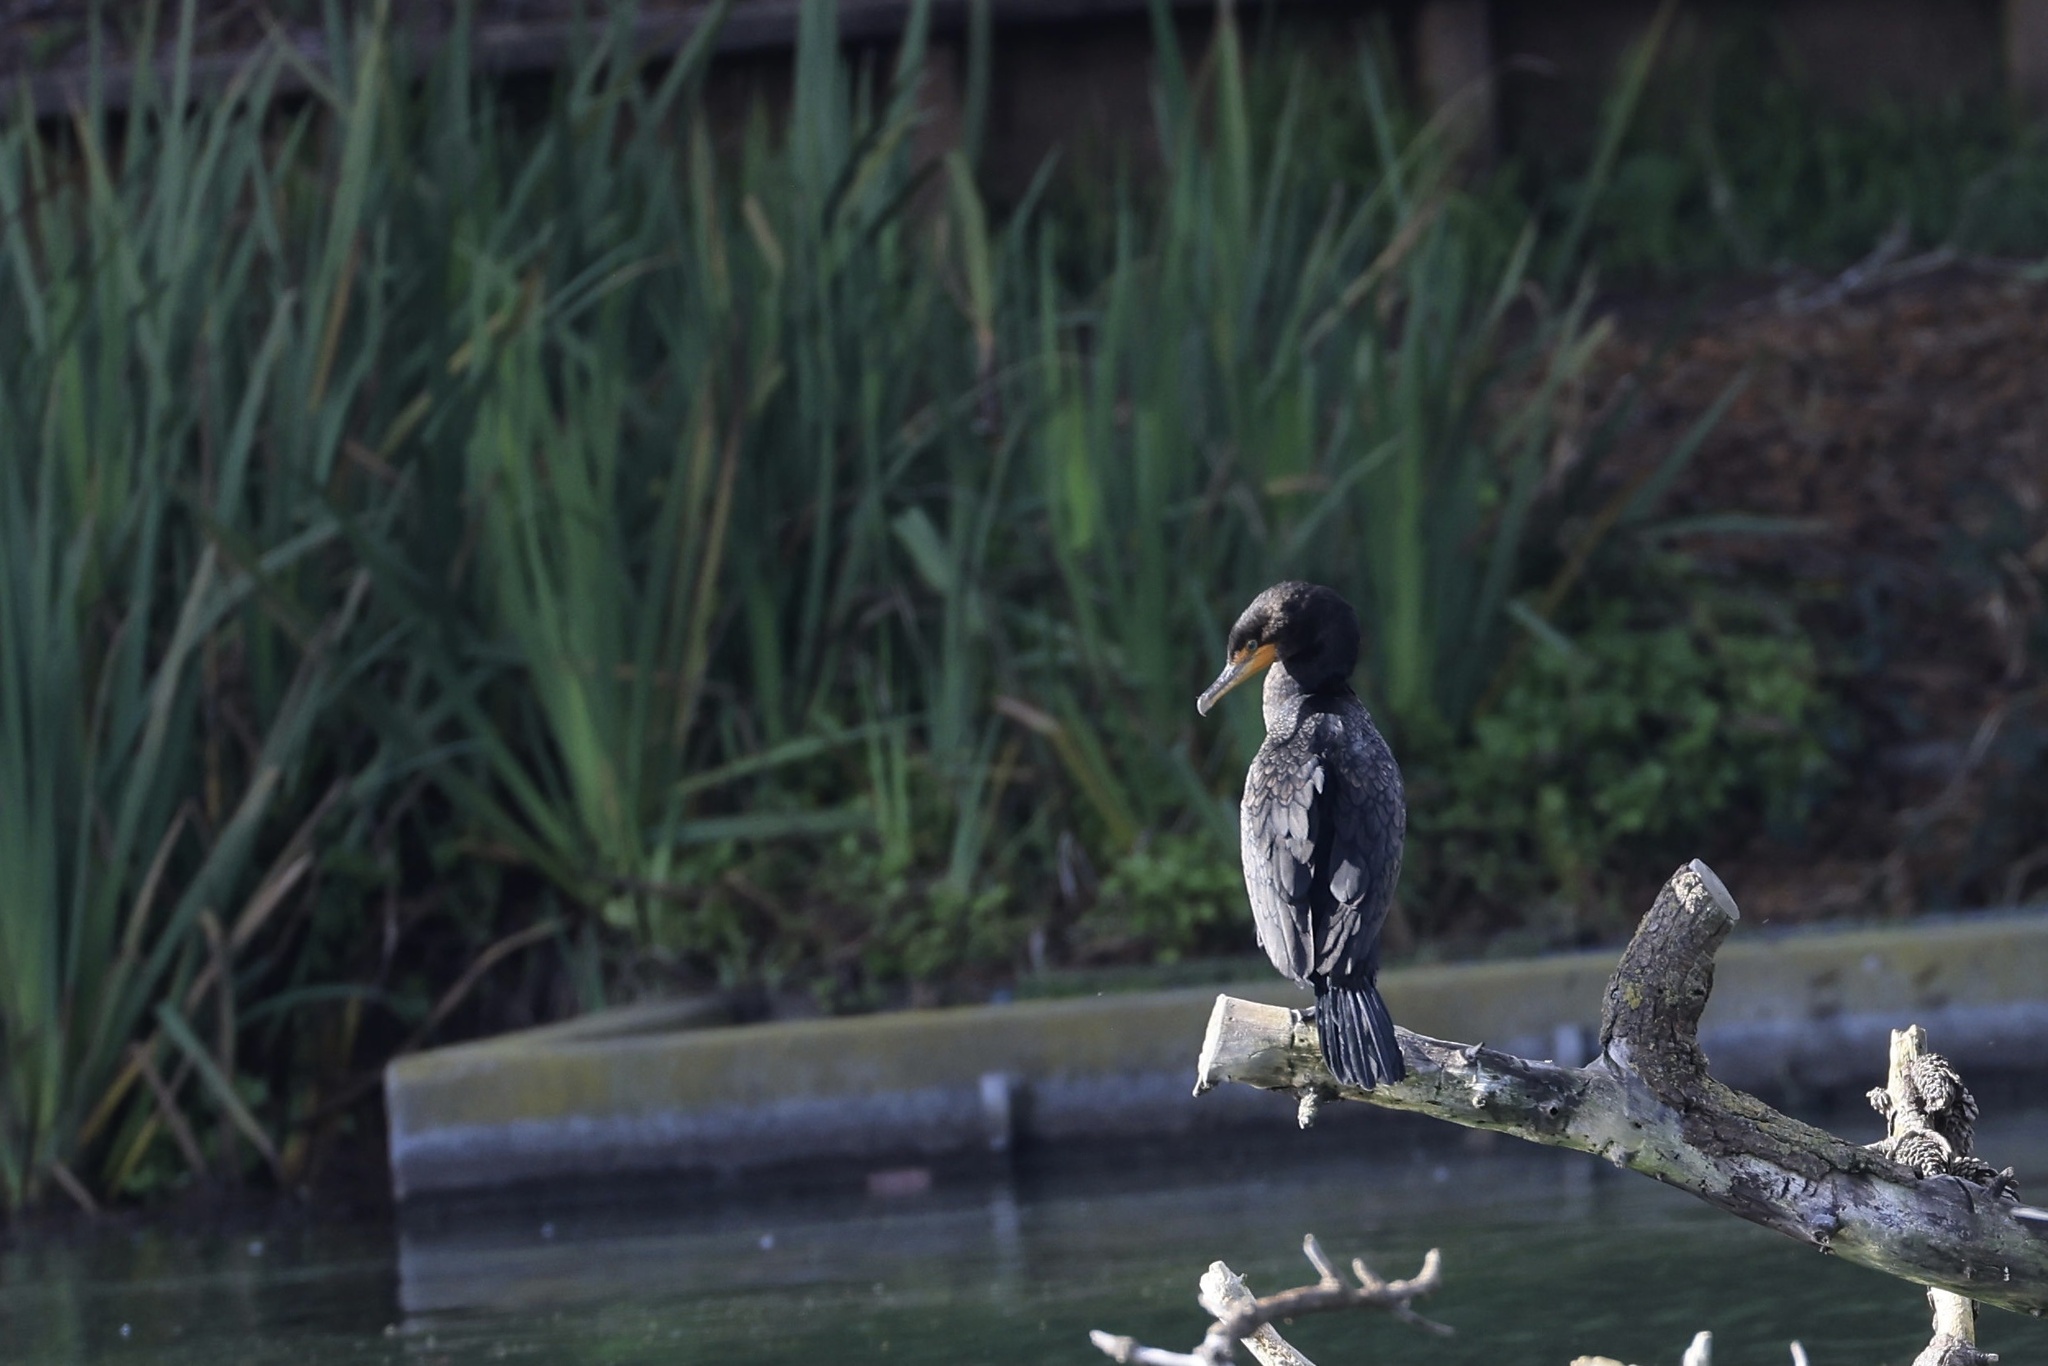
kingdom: Animalia
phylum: Chordata
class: Aves
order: Suliformes
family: Phalacrocoracidae
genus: Phalacrocorax
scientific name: Phalacrocorax auritus
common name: Double-crested cormorant
